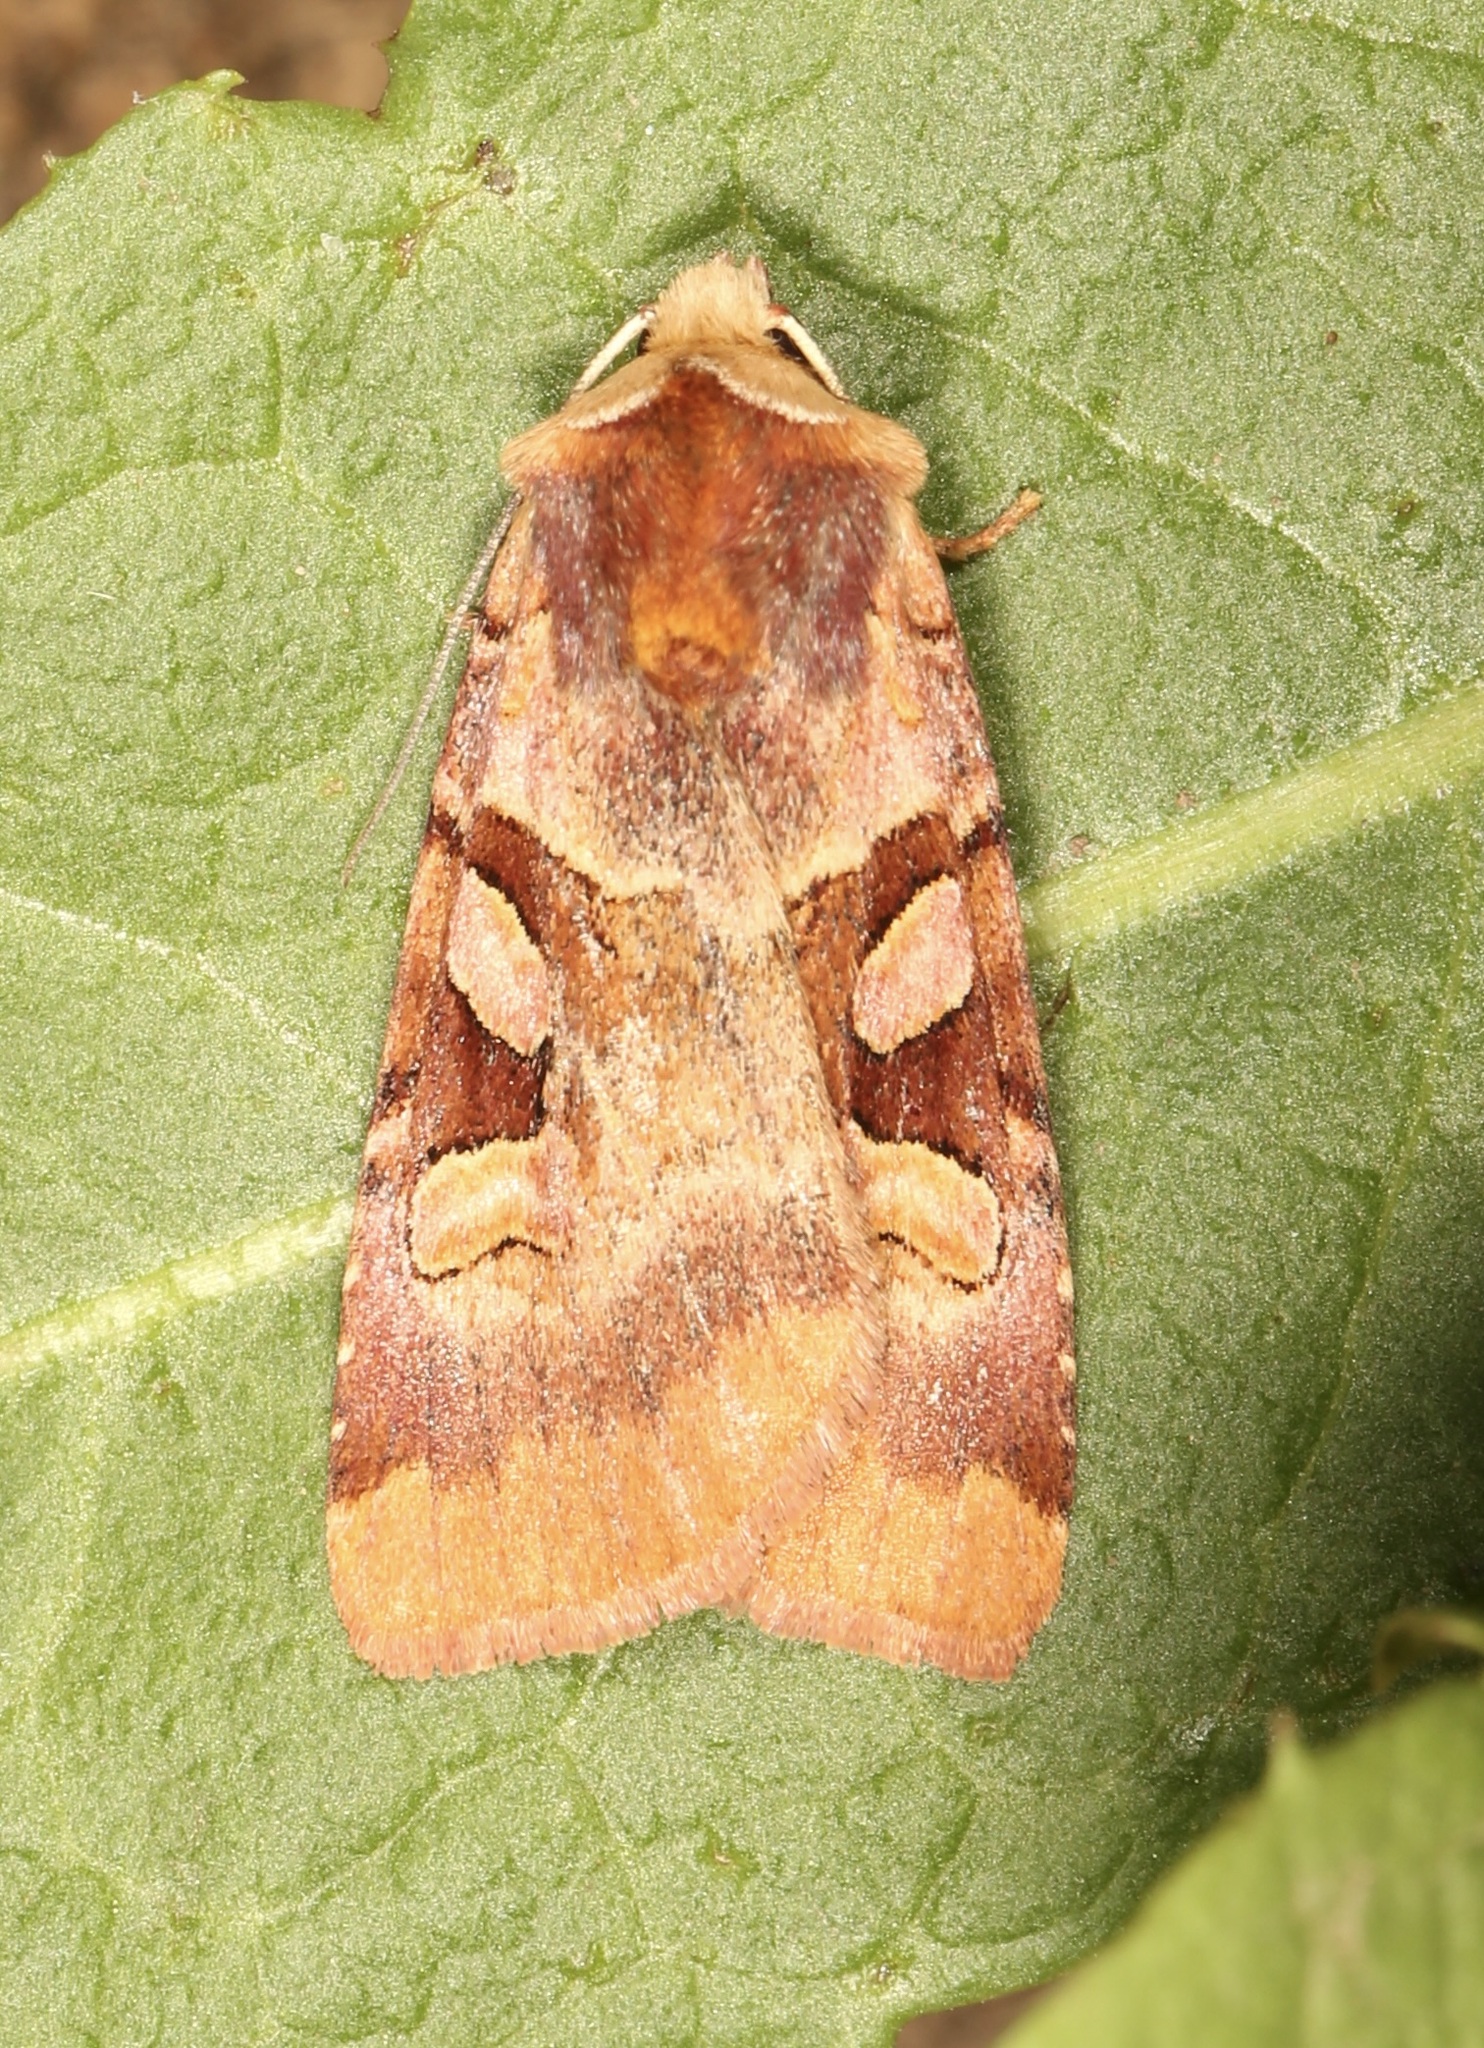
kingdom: Animalia
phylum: Arthropoda
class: Insecta
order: Lepidoptera
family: Noctuidae
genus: Xestia
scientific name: Xestia oblata
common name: Rosy dart
